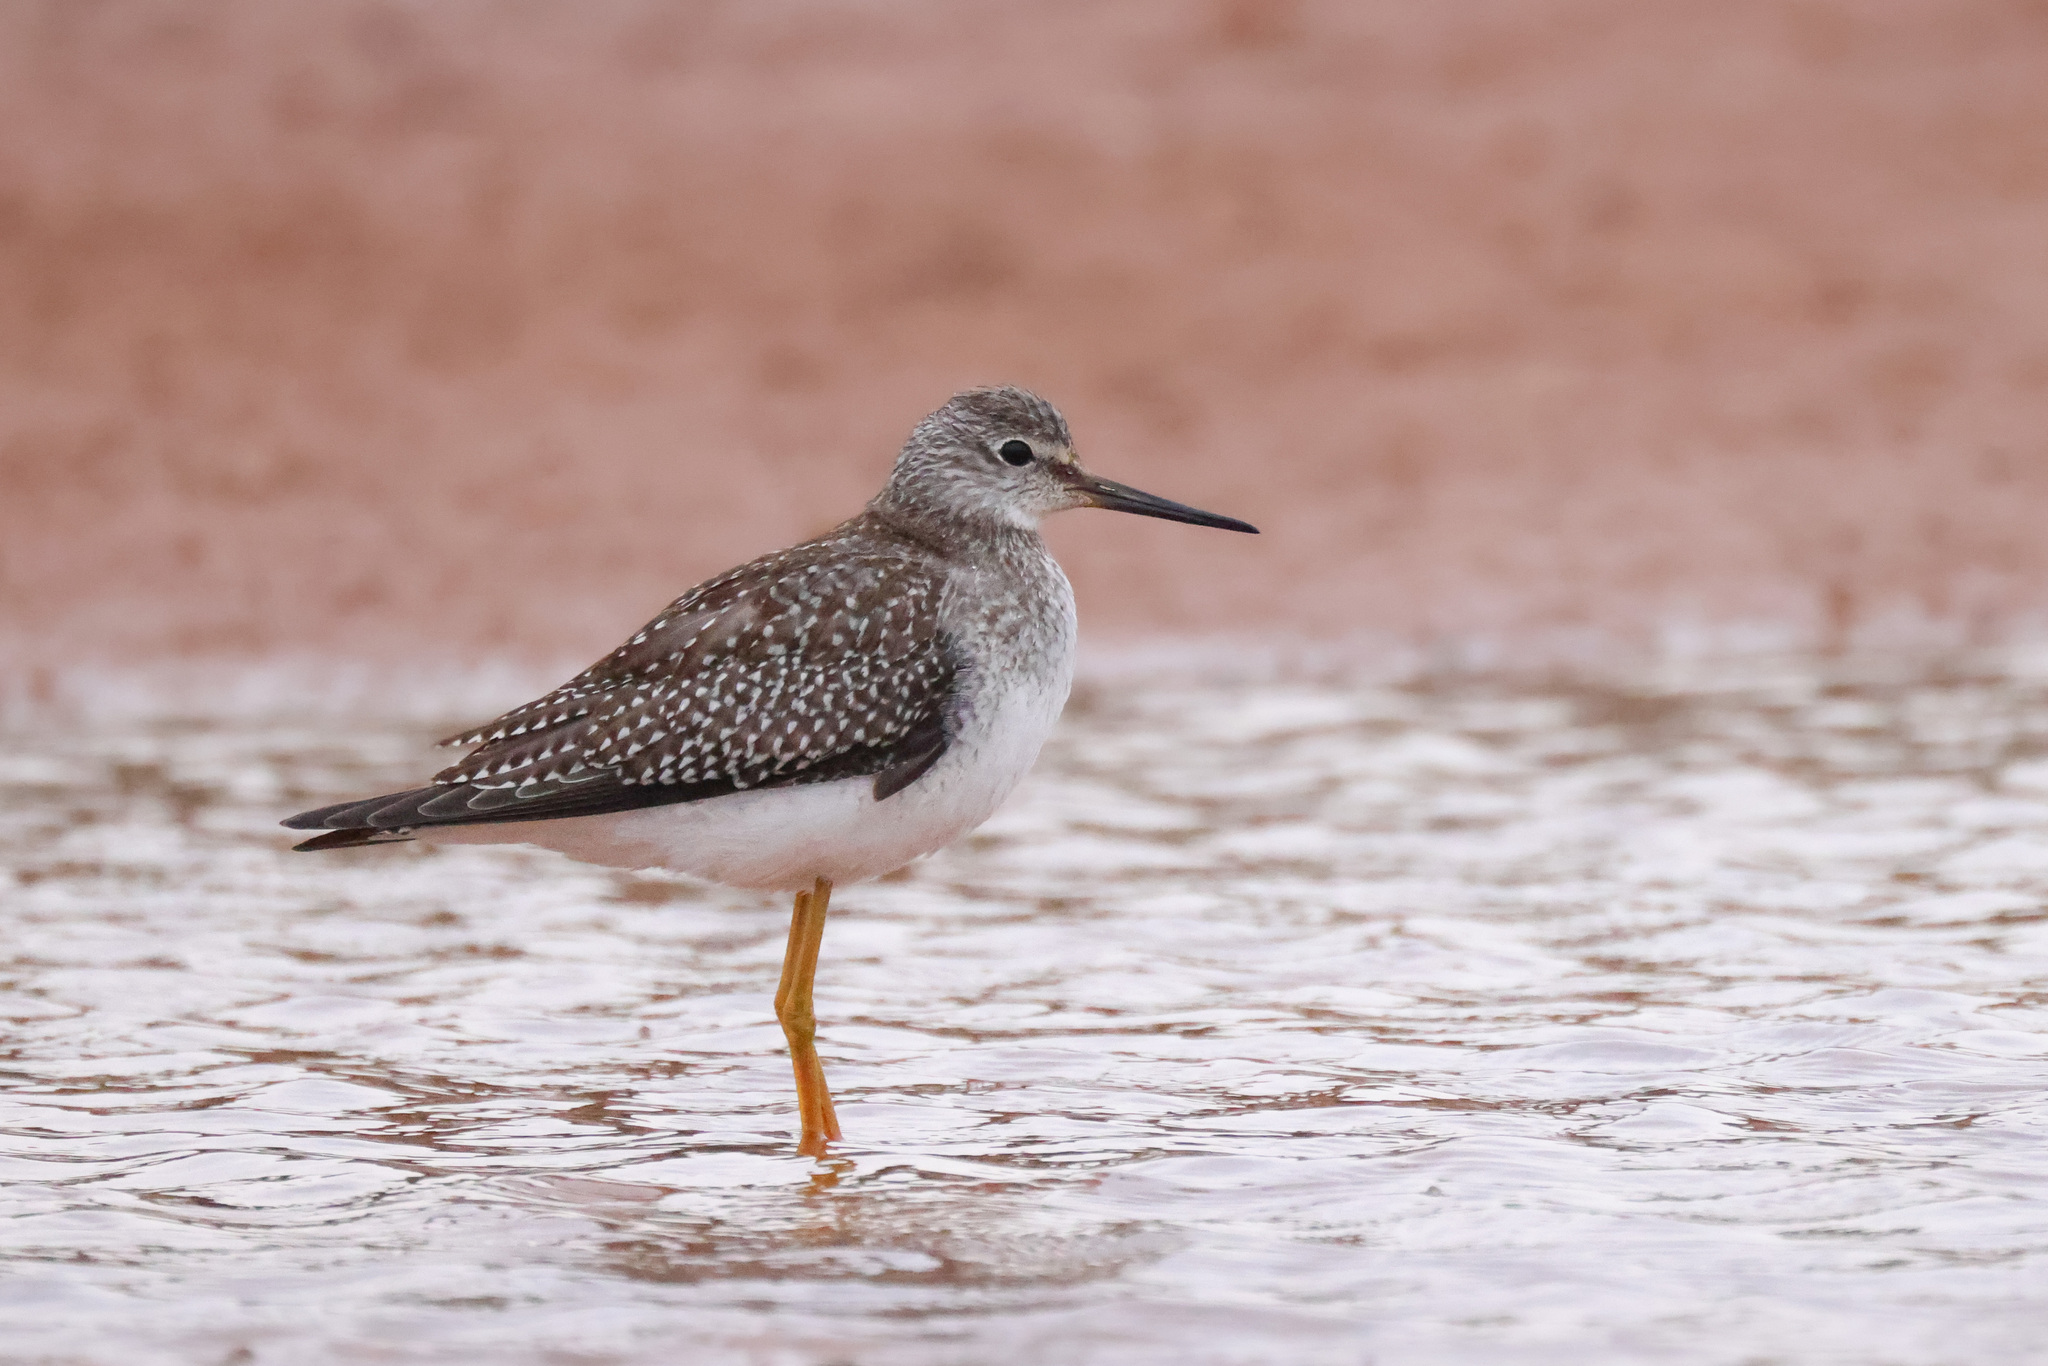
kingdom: Animalia
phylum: Chordata
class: Aves
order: Charadriiformes
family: Scolopacidae
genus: Tringa
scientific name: Tringa flavipes
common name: Lesser yellowlegs
